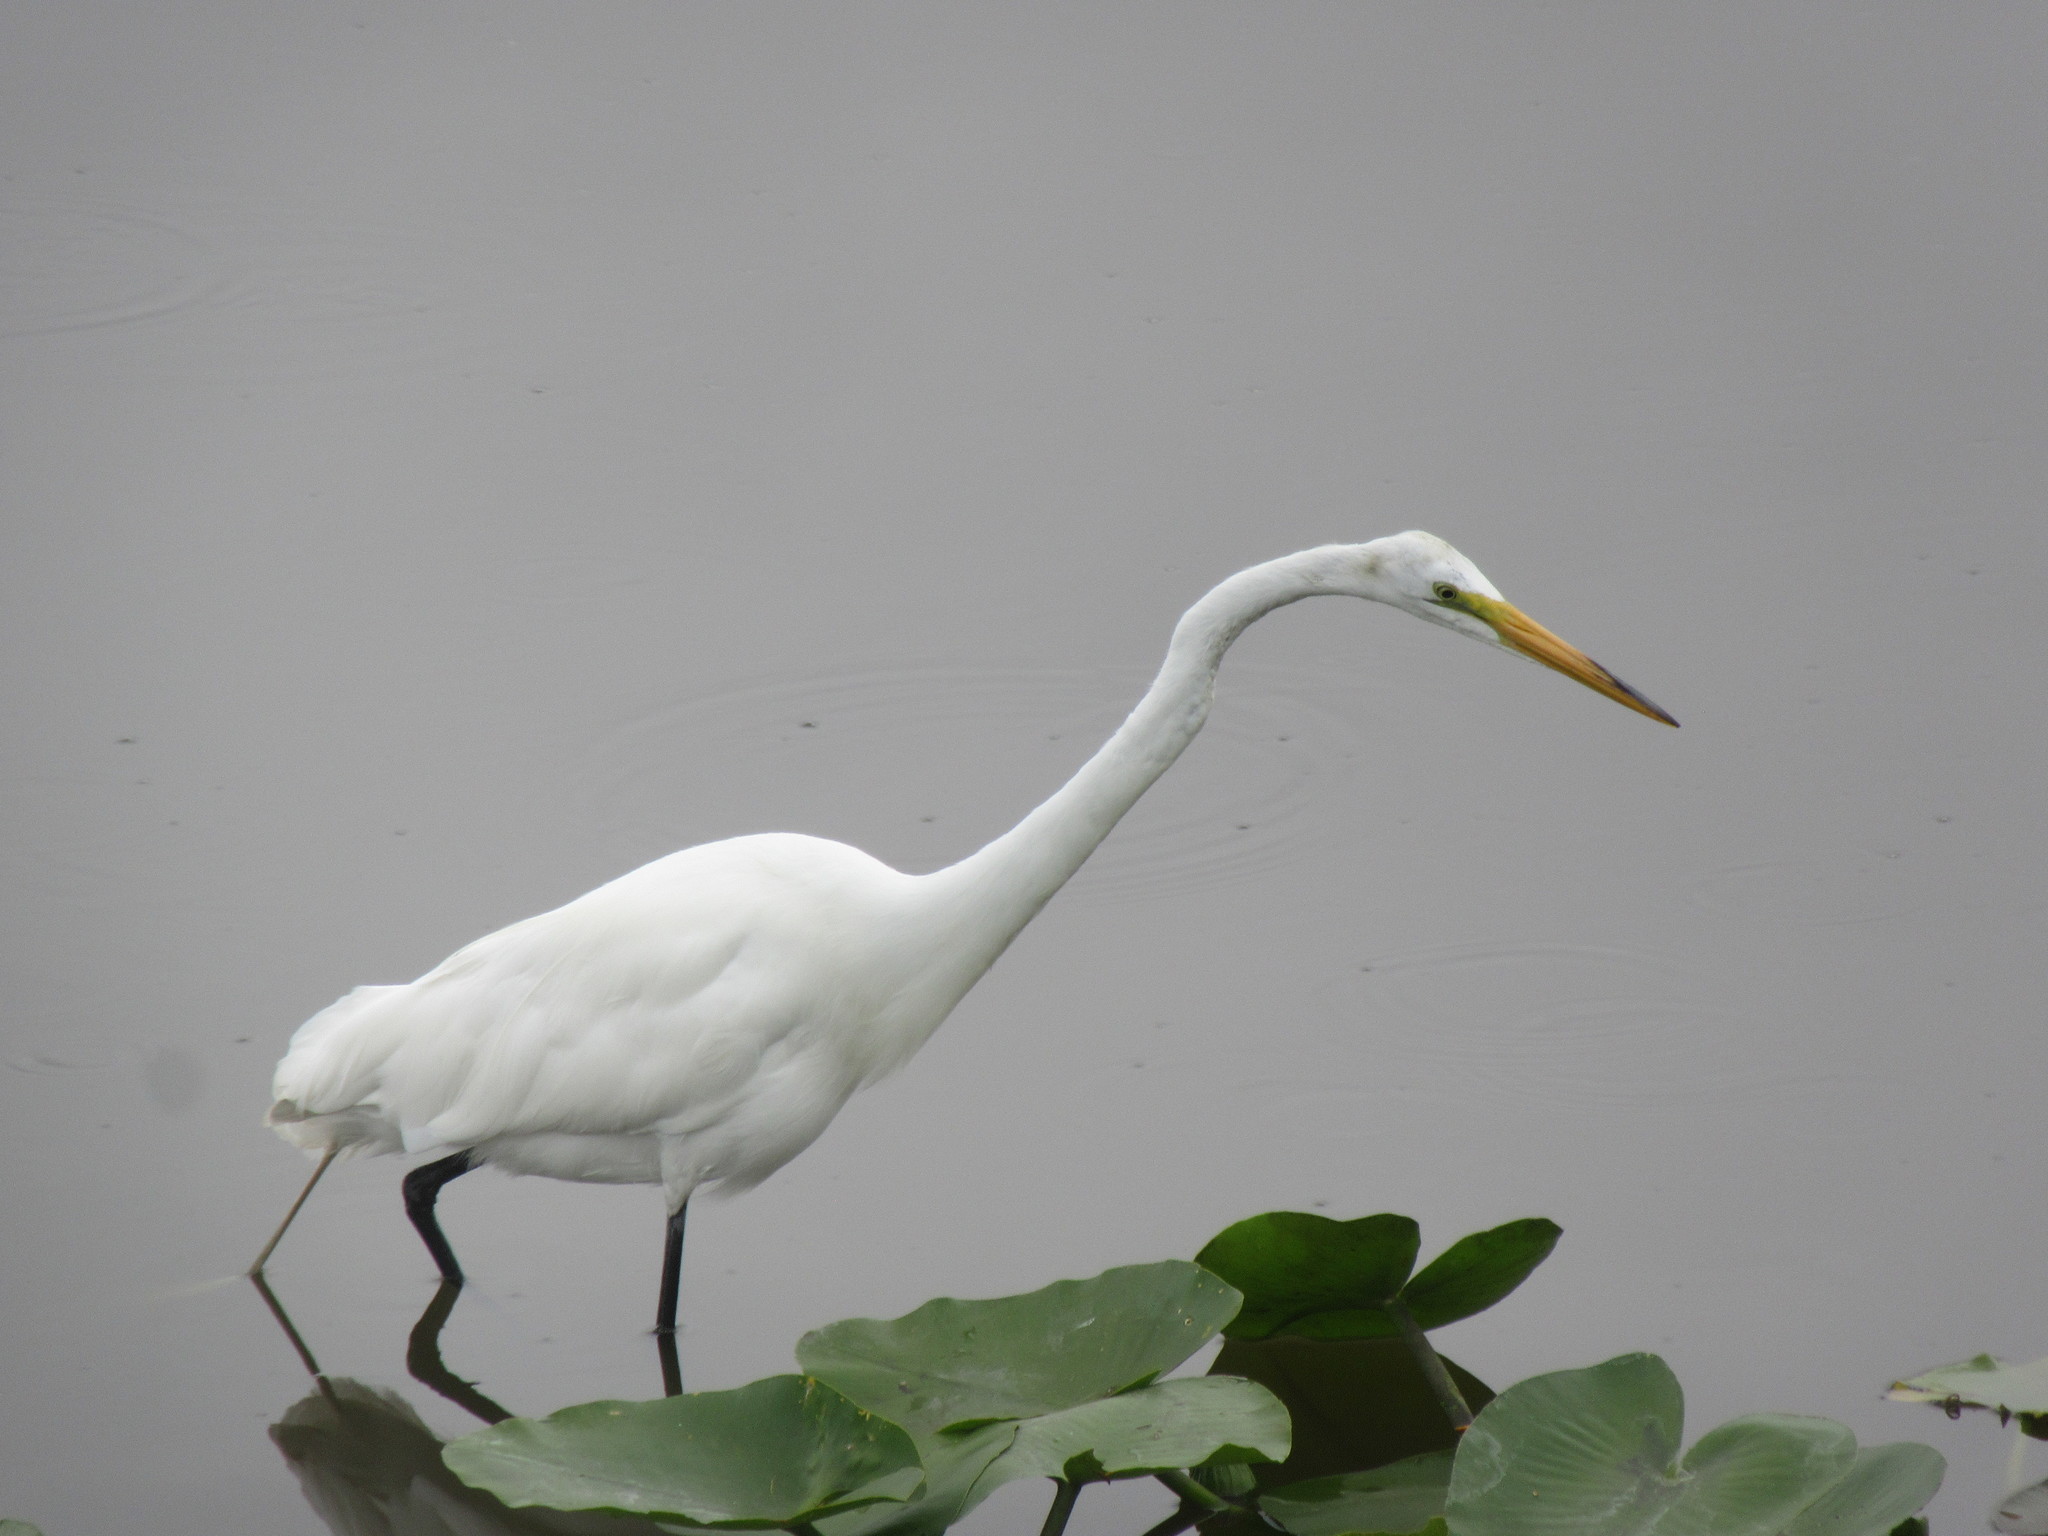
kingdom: Animalia
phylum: Chordata
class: Aves
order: Pelecaniformes
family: Ardeidae
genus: Ardea
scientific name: Ardea alba
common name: Great egret
